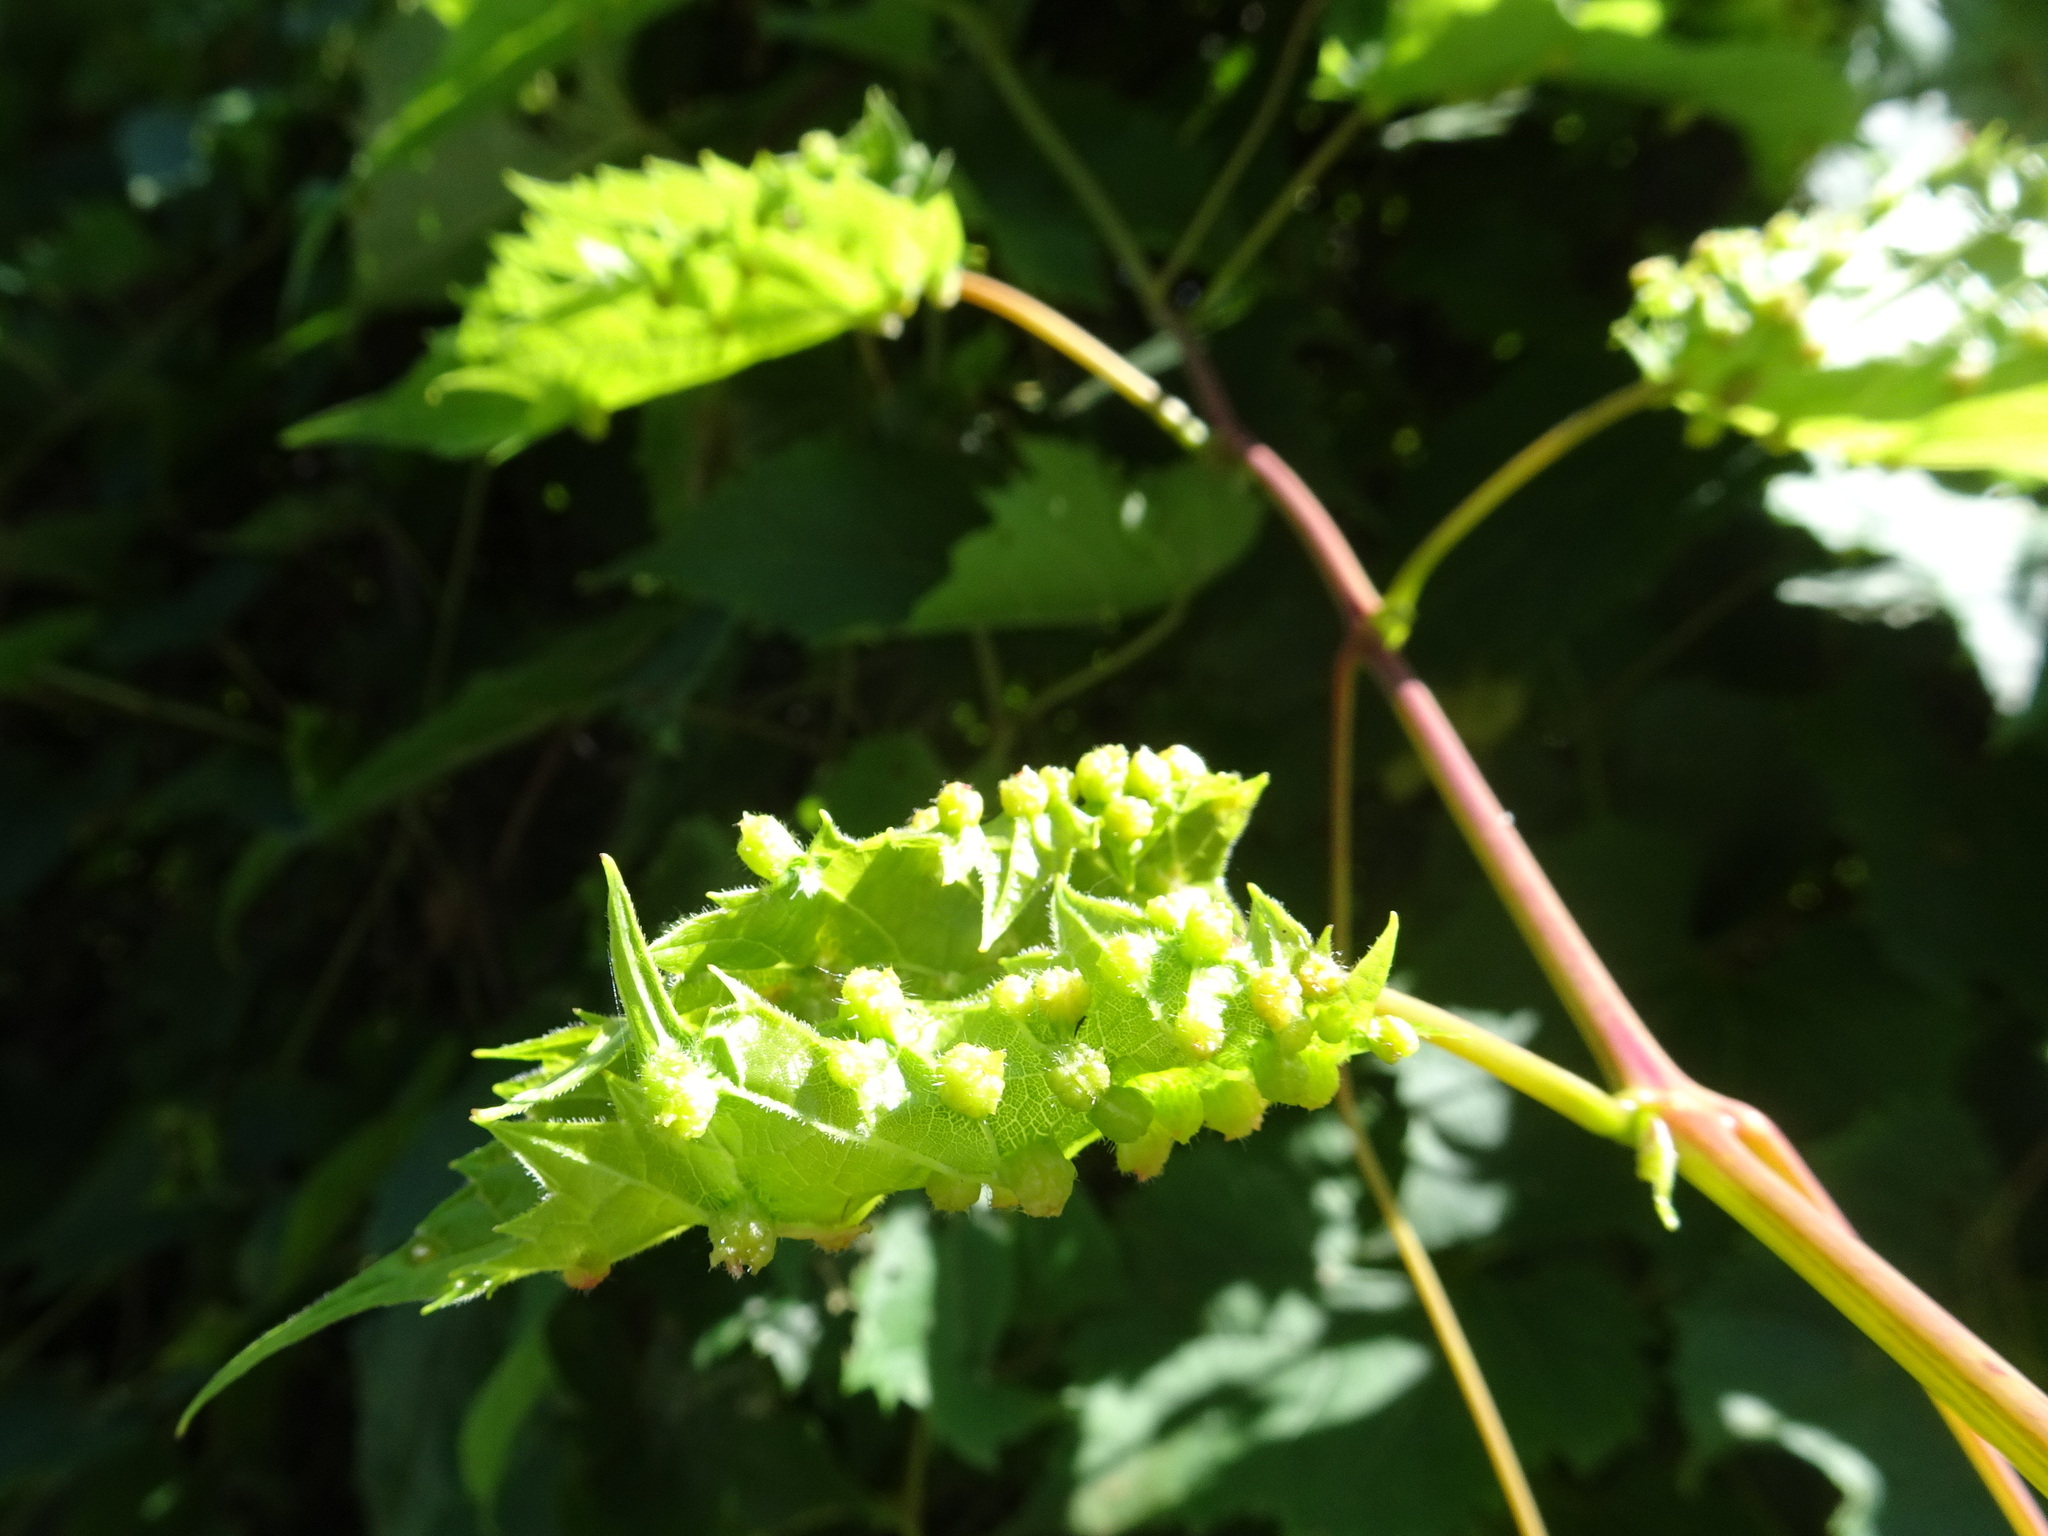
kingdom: Animalia
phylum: Arthropoda
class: Insecta
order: Hemiptera
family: Phylloxeridae
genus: Daktulosphaira
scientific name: Daktulosphaira vitifoliae
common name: Grape phylloxera
